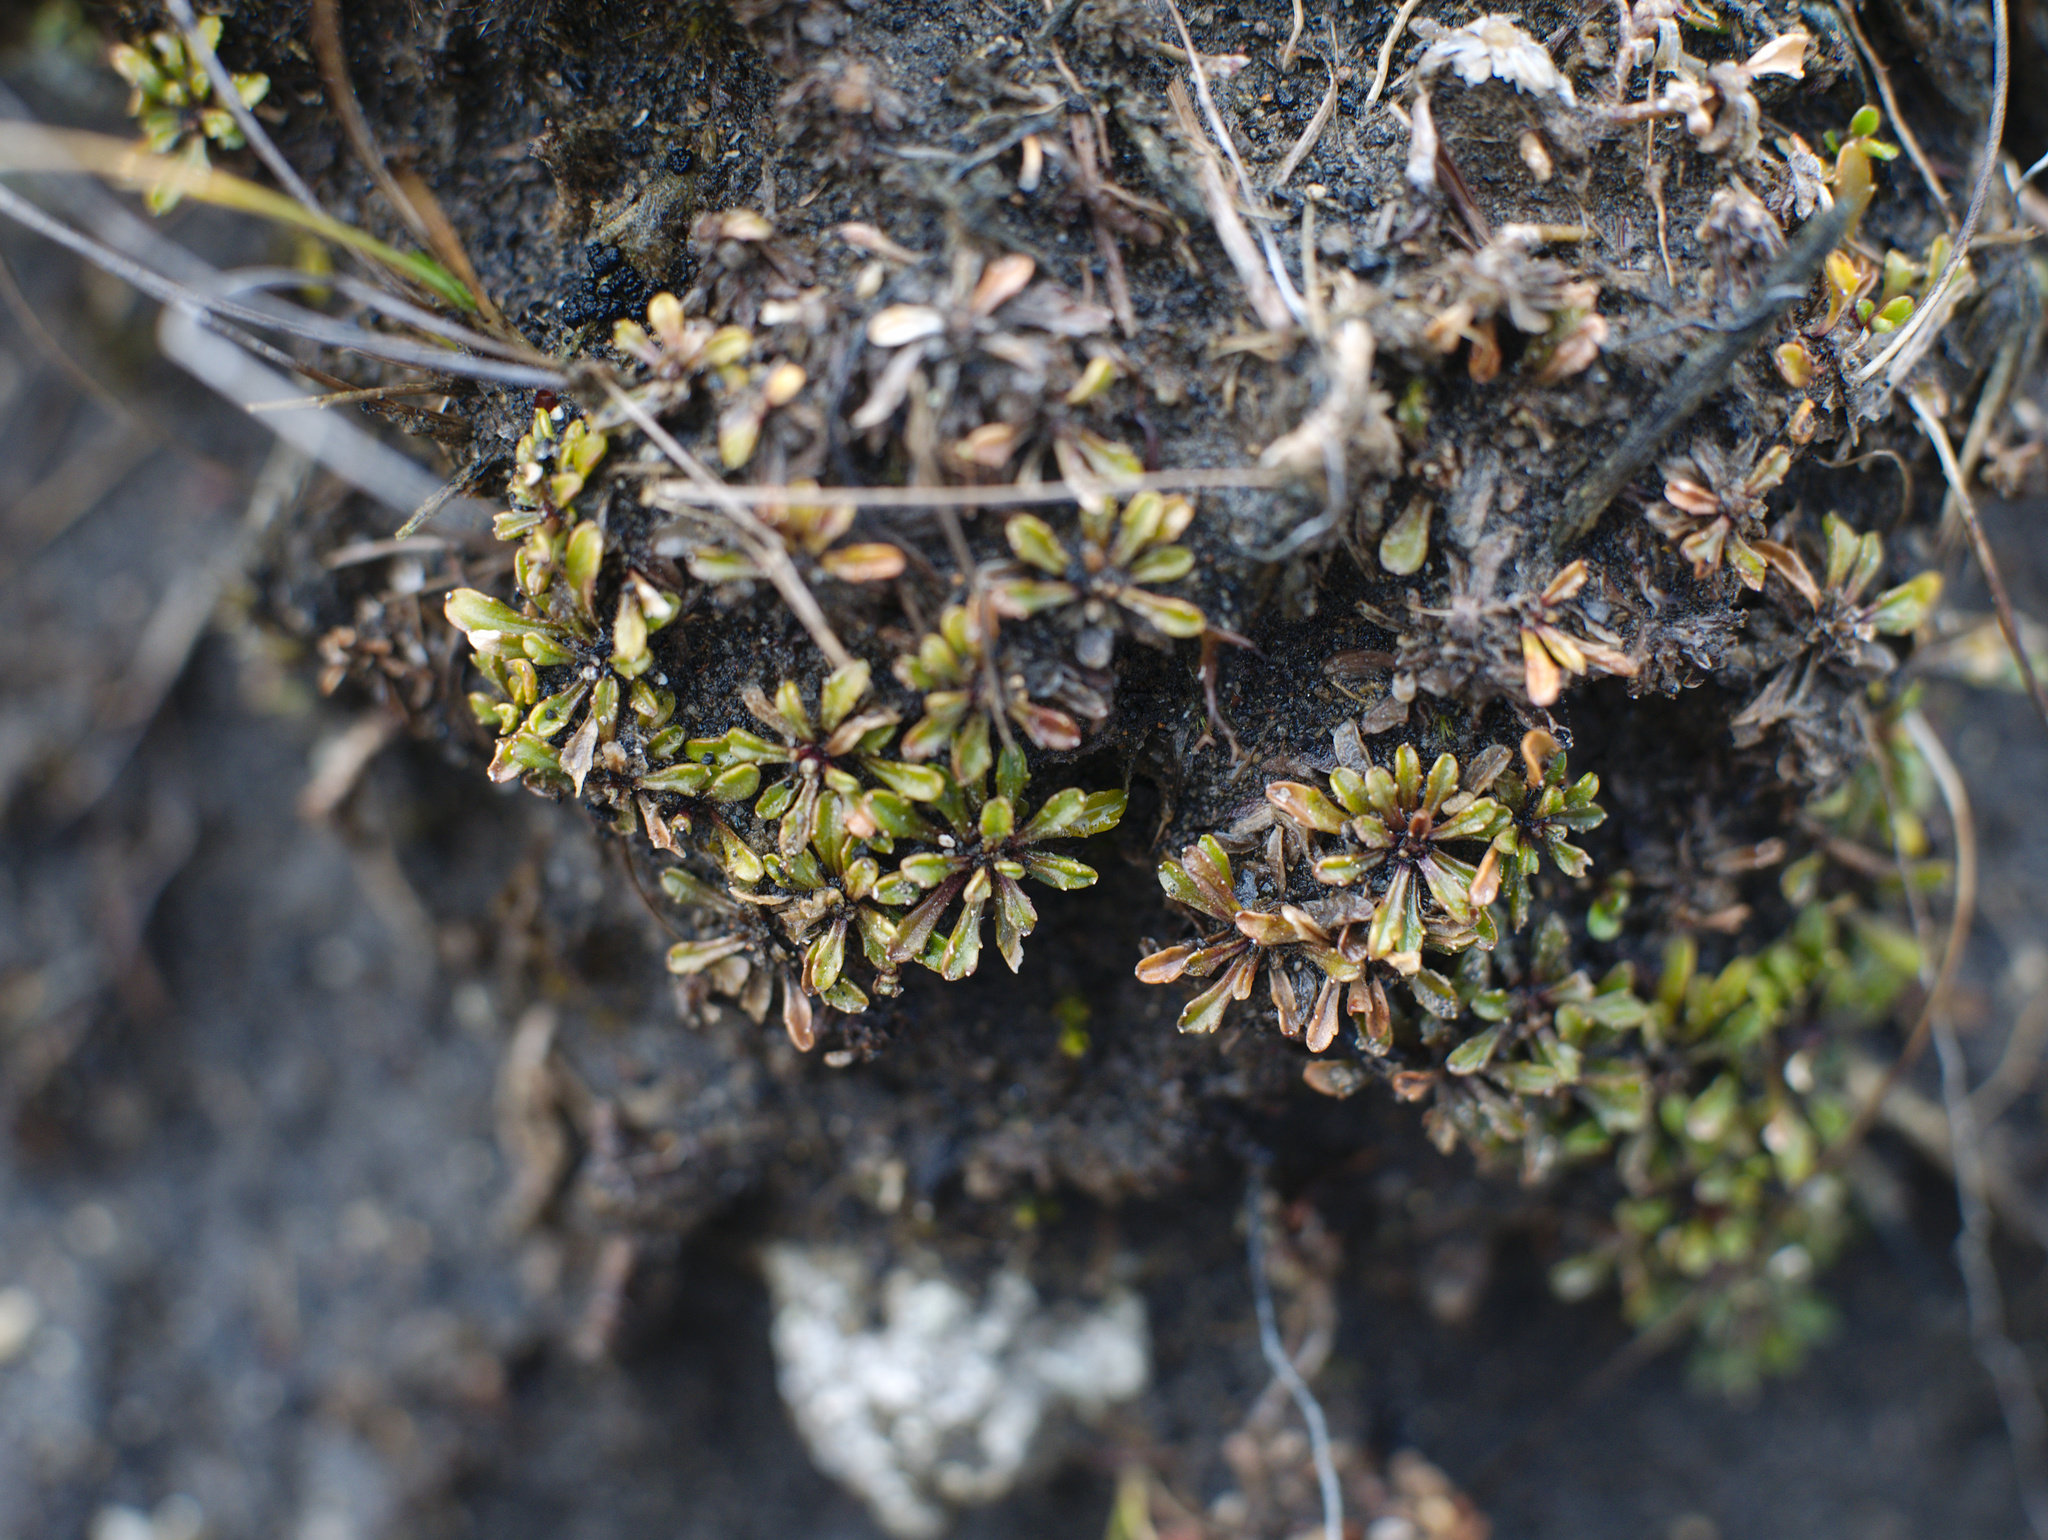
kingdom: Plantae
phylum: Tracheophyta
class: Magnoliopsida
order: Asterales
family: Campanulaceae
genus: Wahlenbergia
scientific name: Wahlenbergia pygmaea
